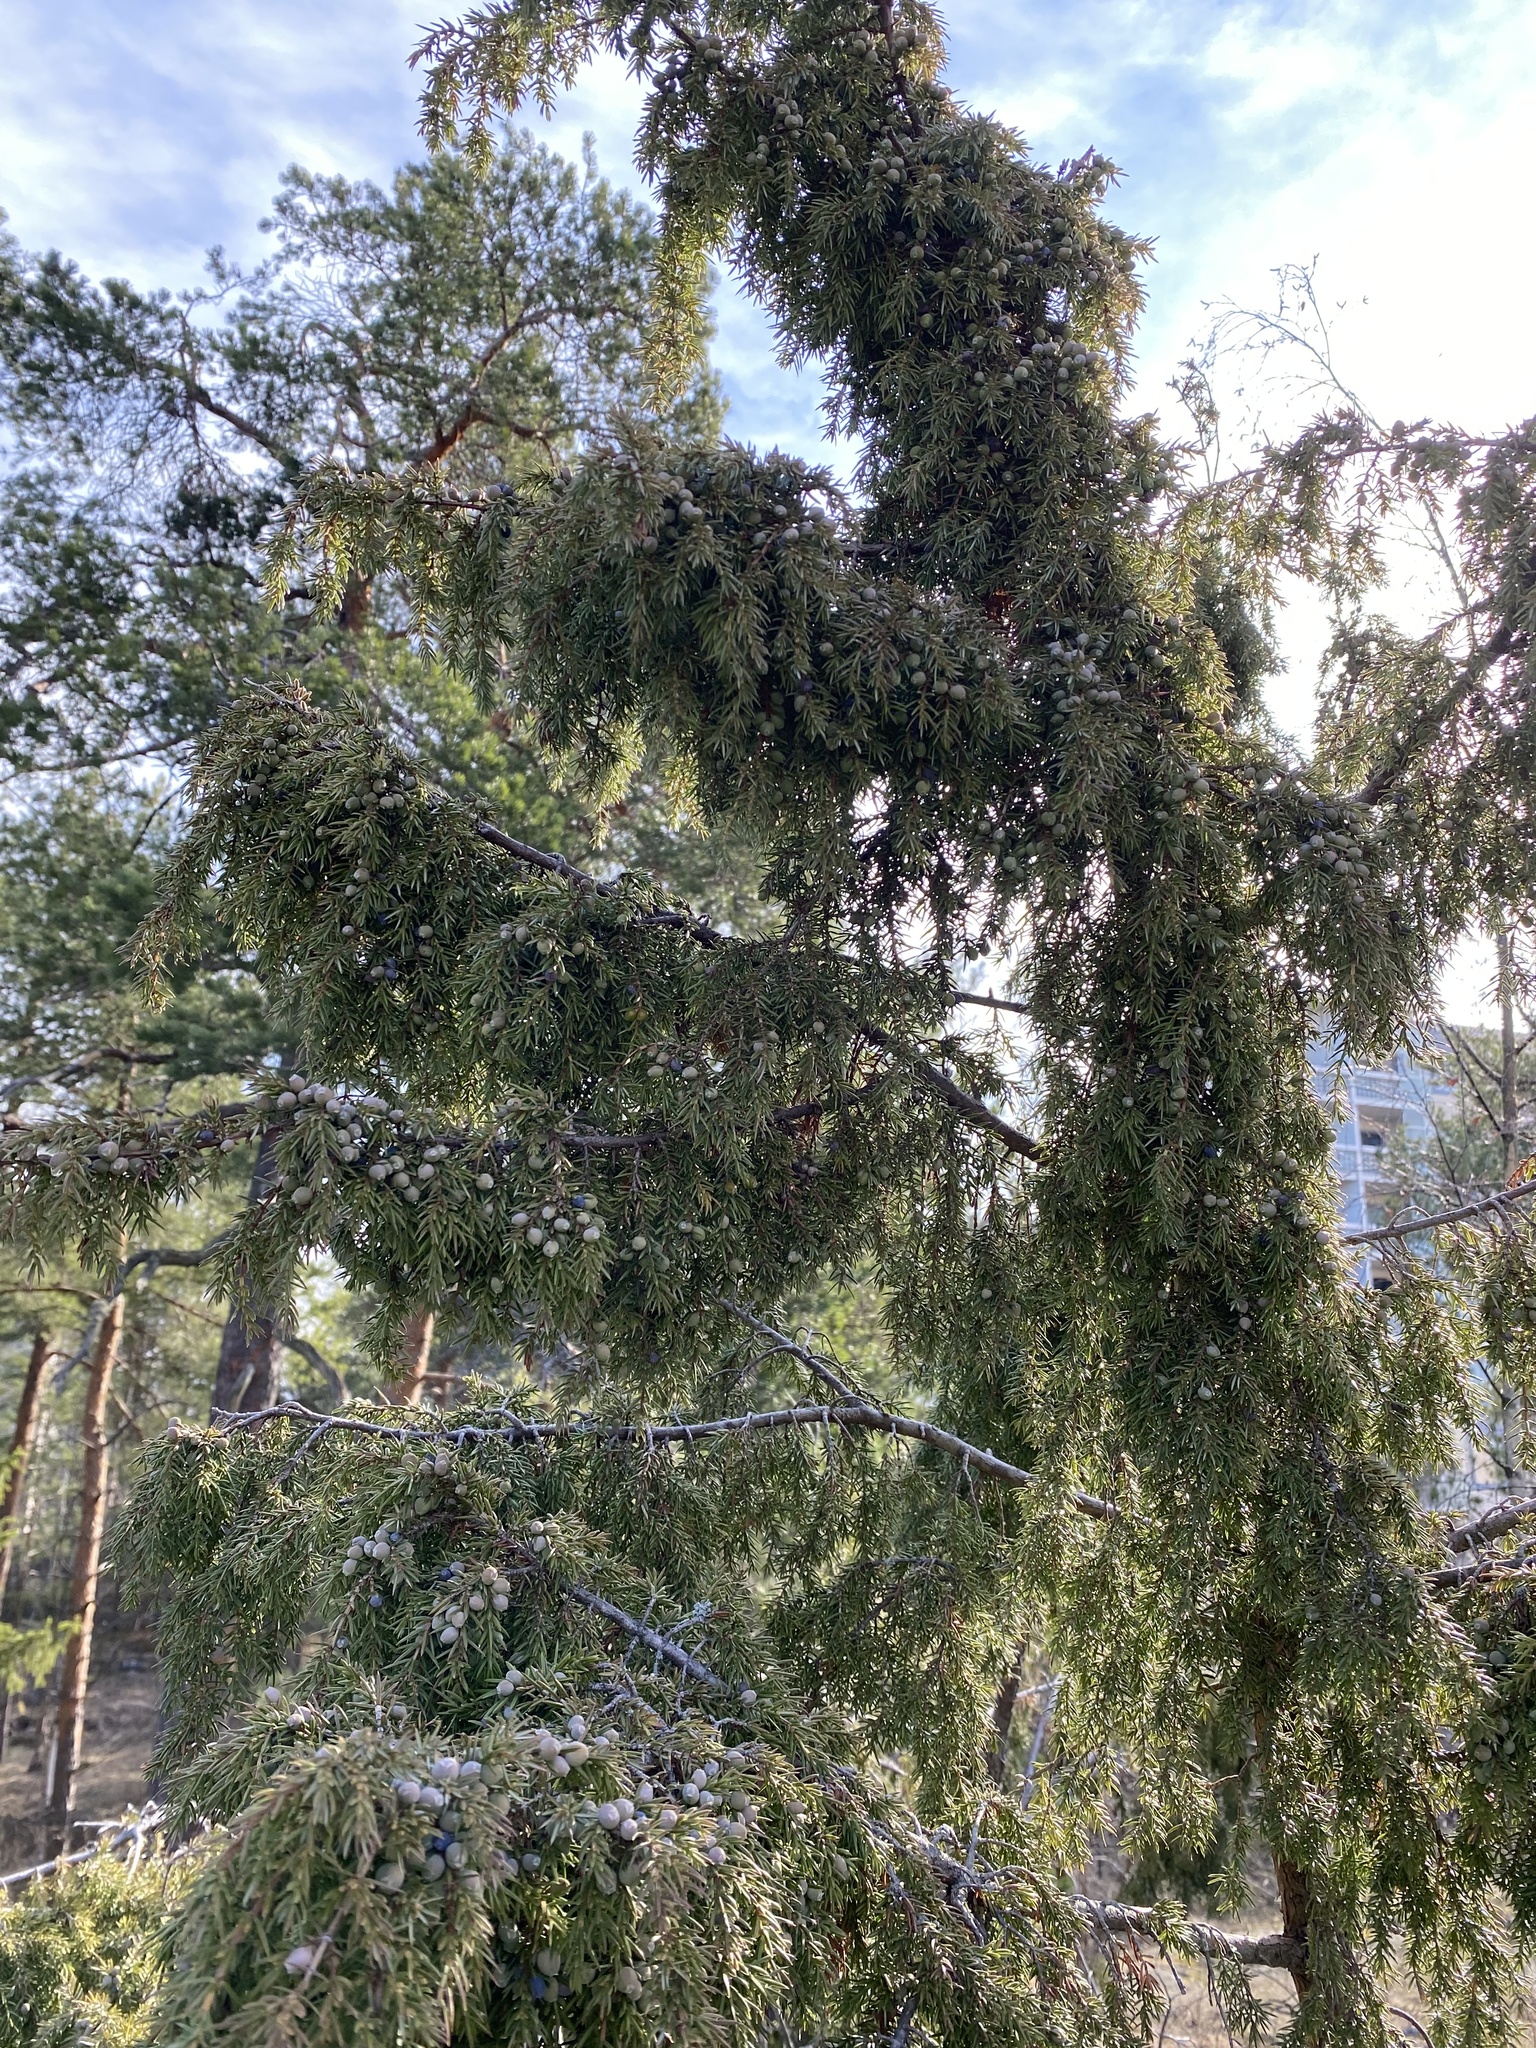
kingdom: Plantae
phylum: Tracheophyta
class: Pinopsida
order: Pinales
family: Cupressaceae
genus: Juniperus
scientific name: Juniperus communis
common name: Common juniper
